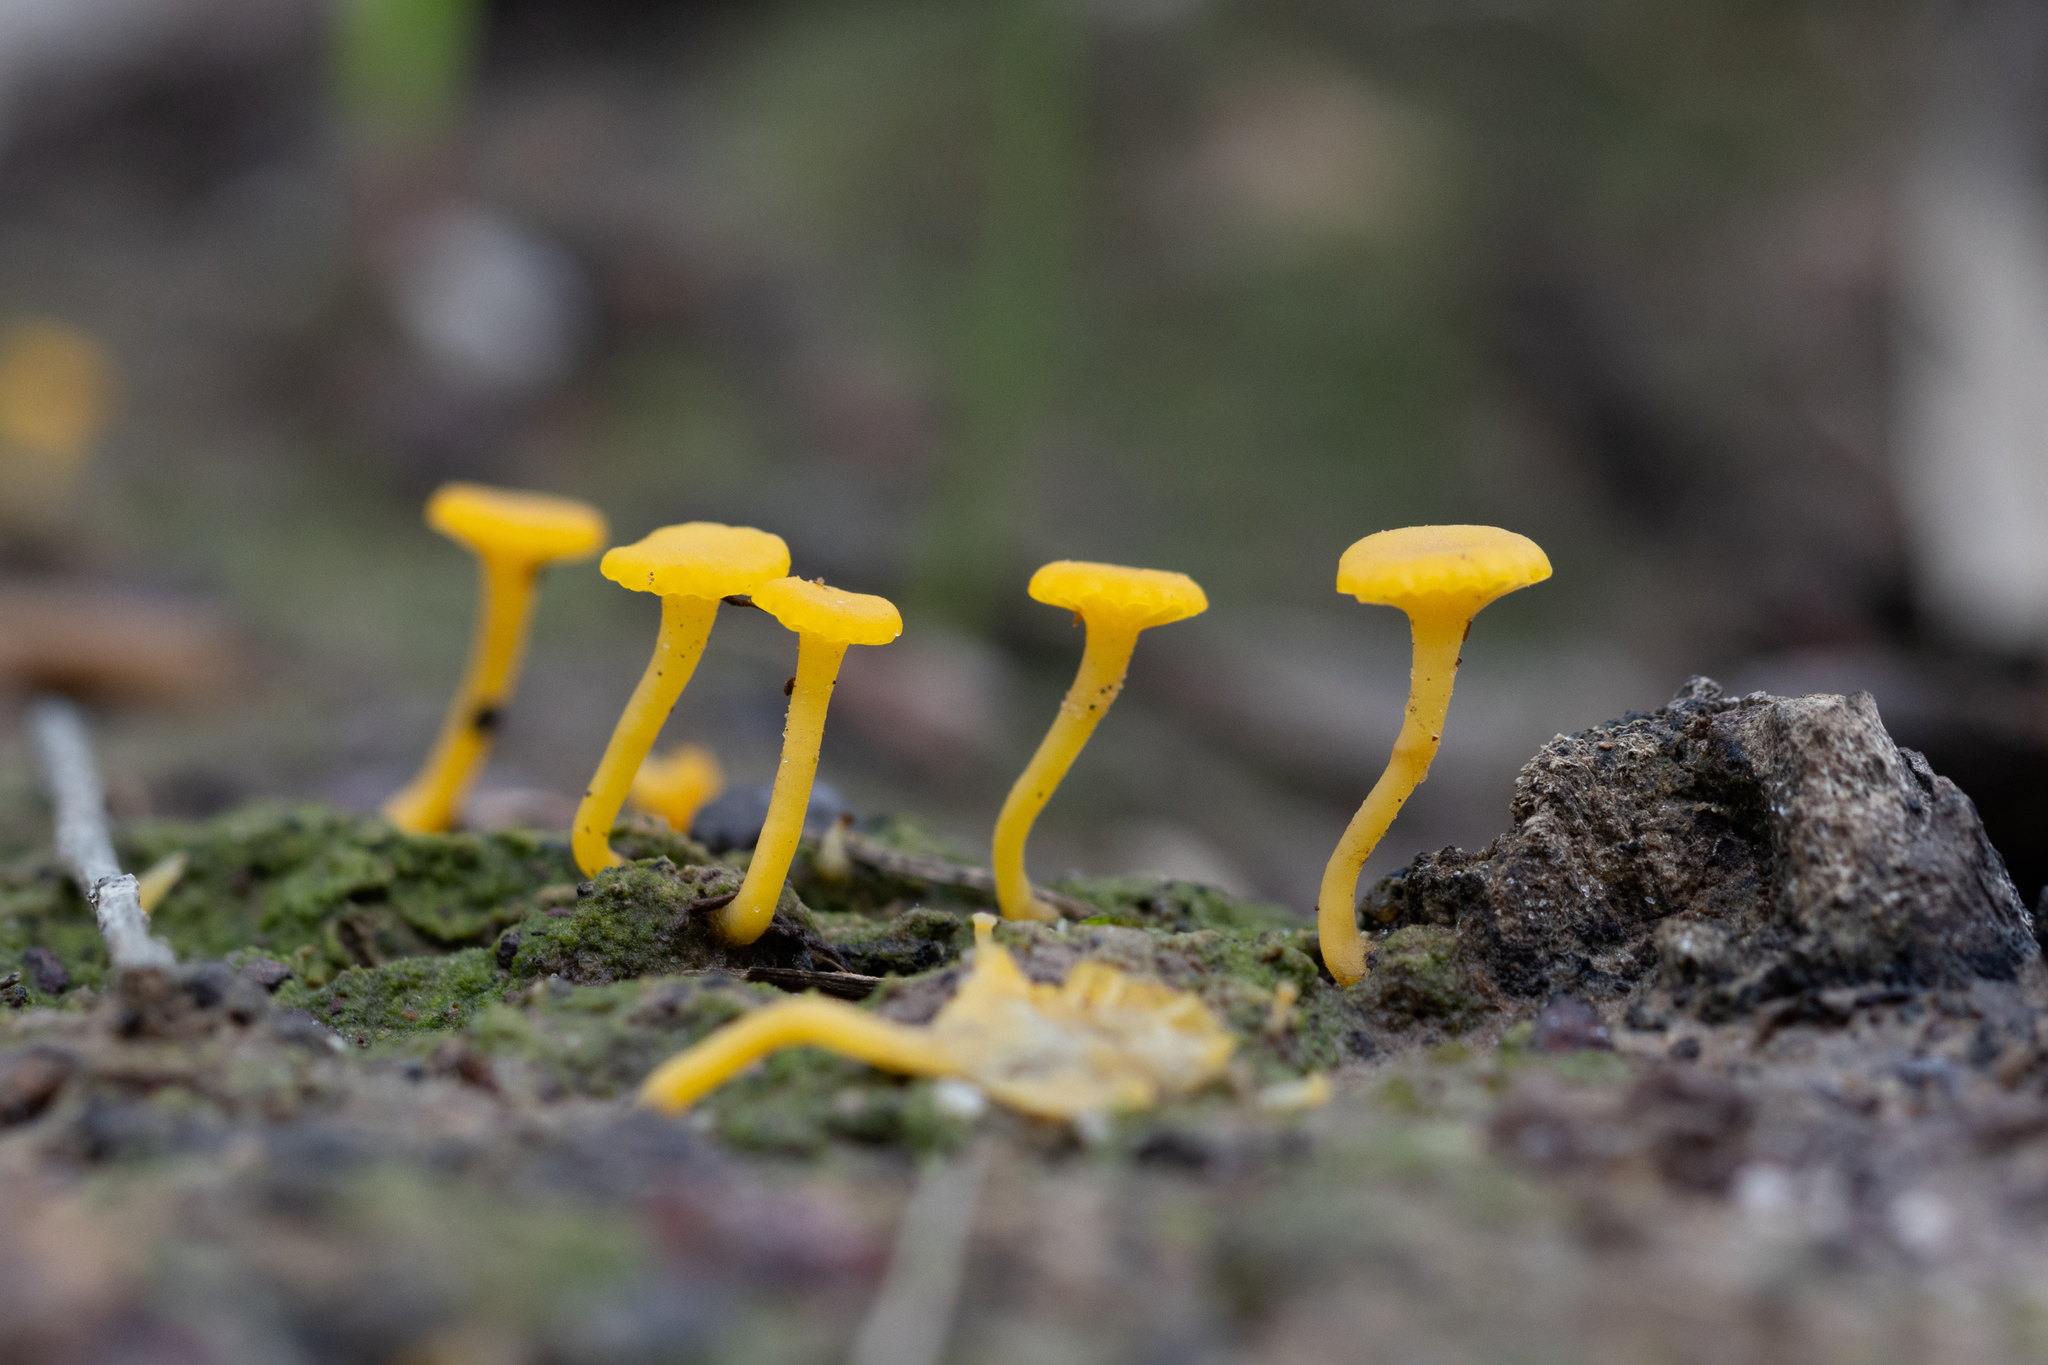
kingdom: Fungi
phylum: Basidiomycota
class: Agaricomycetes
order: Agaricales
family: Hygrophoraceae
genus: Lichenomphalia
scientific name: Lichenomphalia chromacea
